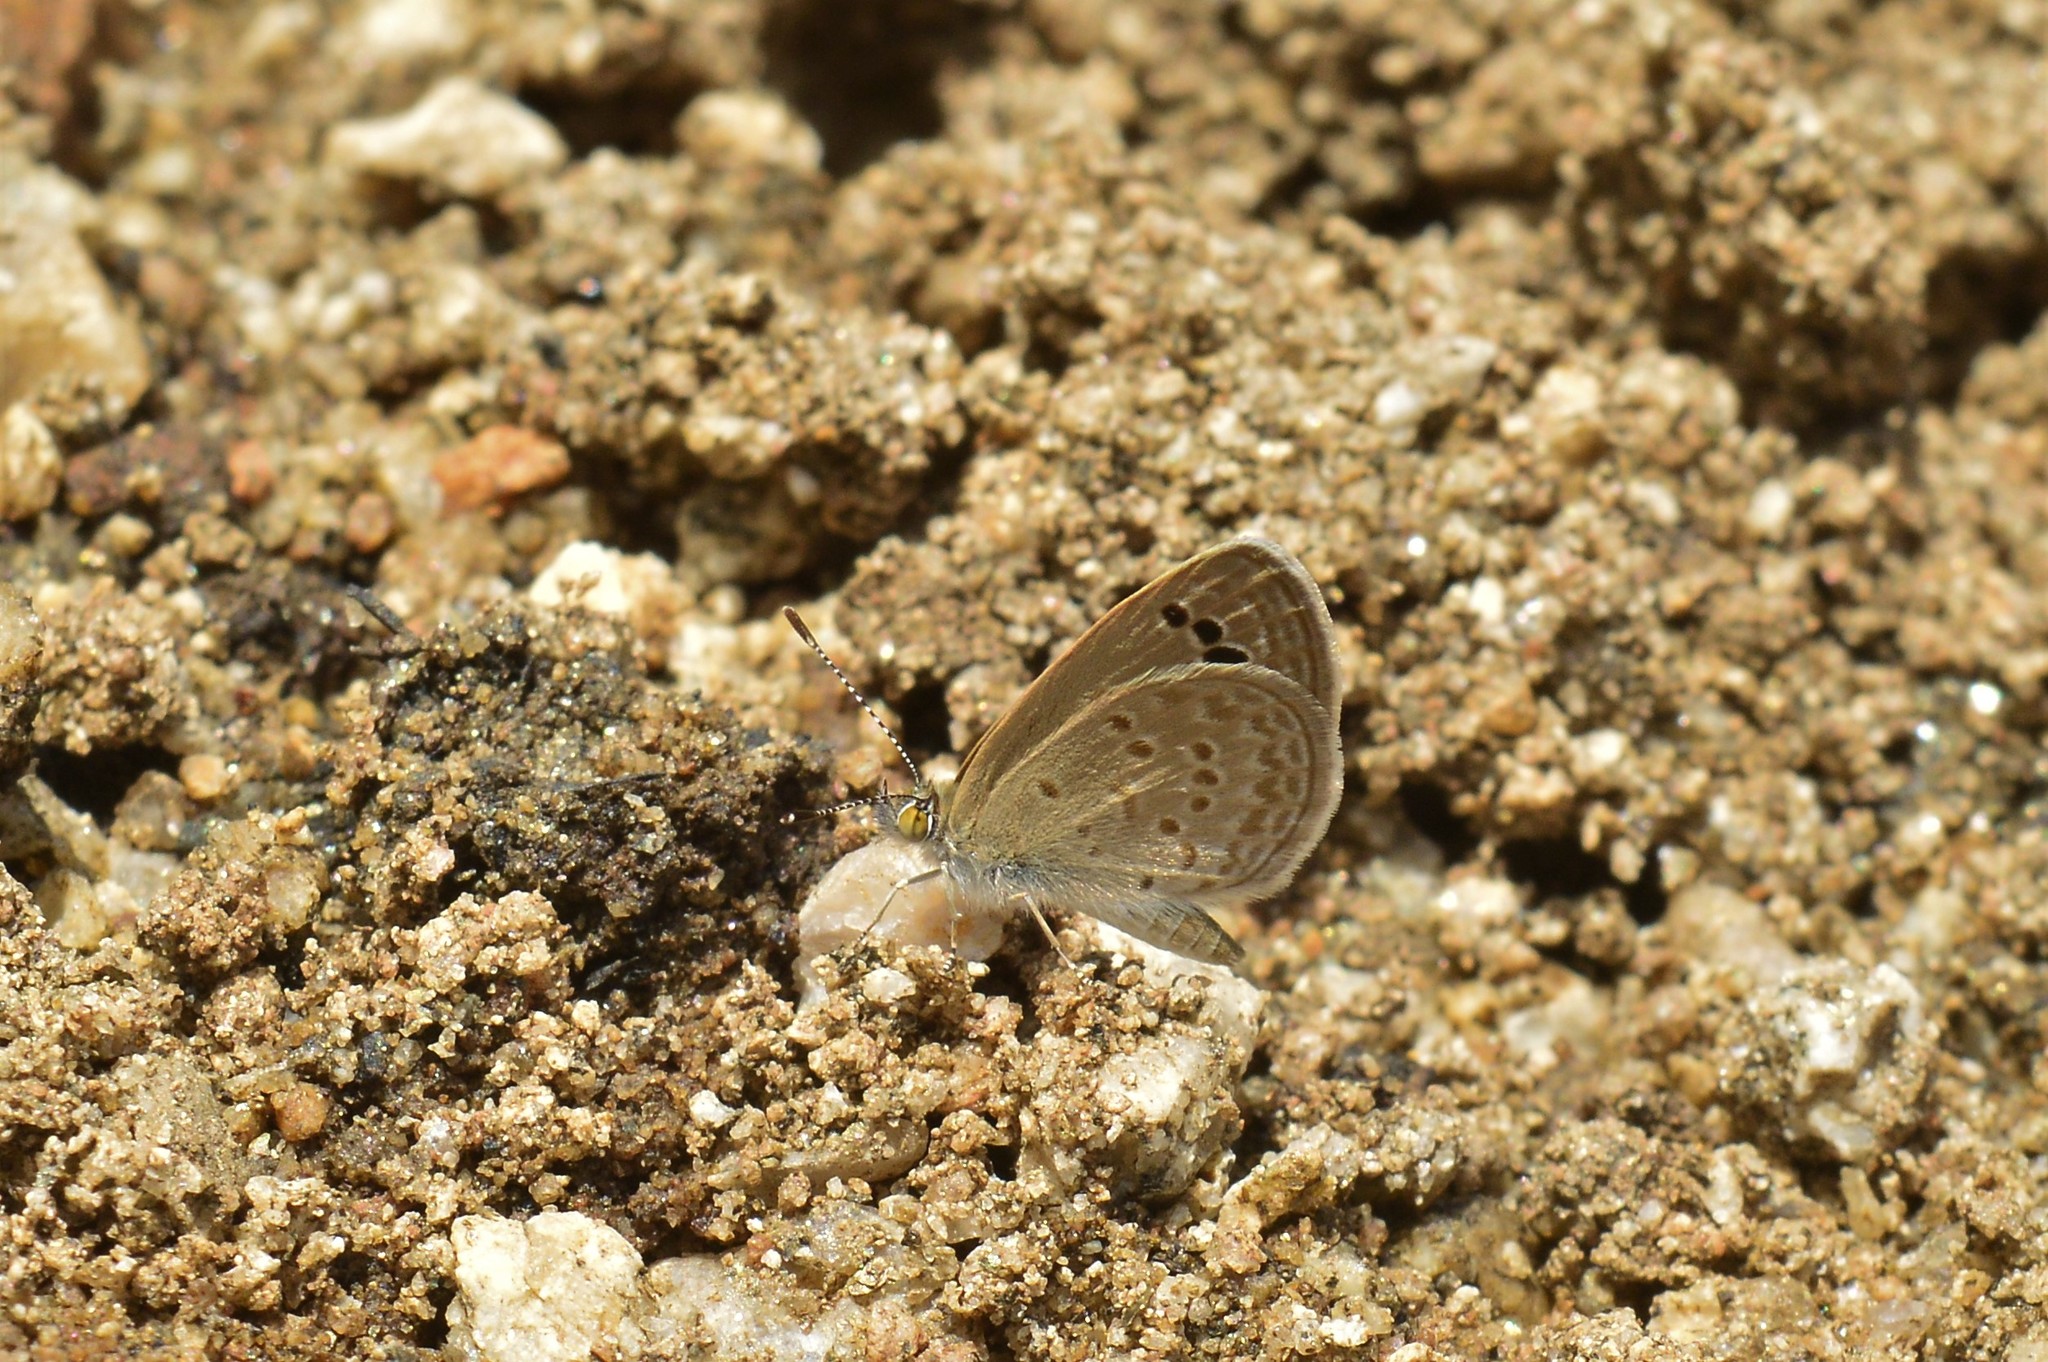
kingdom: Animalia
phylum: Arthropoda
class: Insecta
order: Lepidoptera
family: Lycaenidae
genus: Zizina
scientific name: Zizina otis
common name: Lesser grass blue
